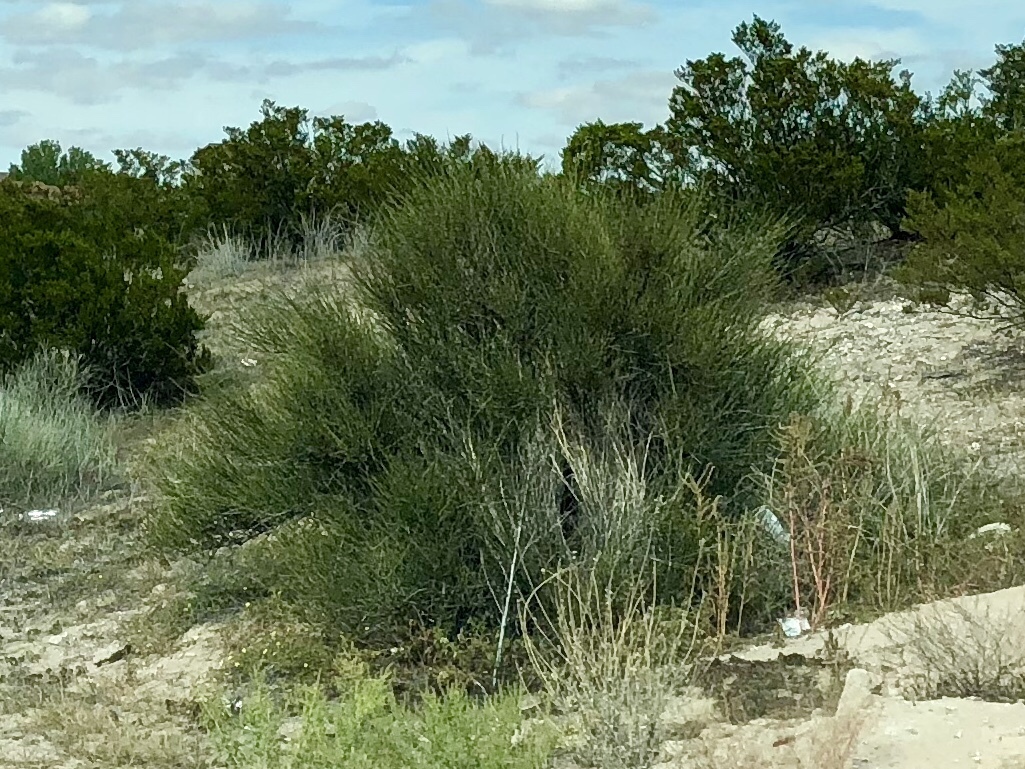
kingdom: Plantae
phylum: Tracheophyta
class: Gnetopsida
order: Ephedrales
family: Ephedraceae
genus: Ephedra
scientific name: Ephedra trifurca
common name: Mexican-tea
